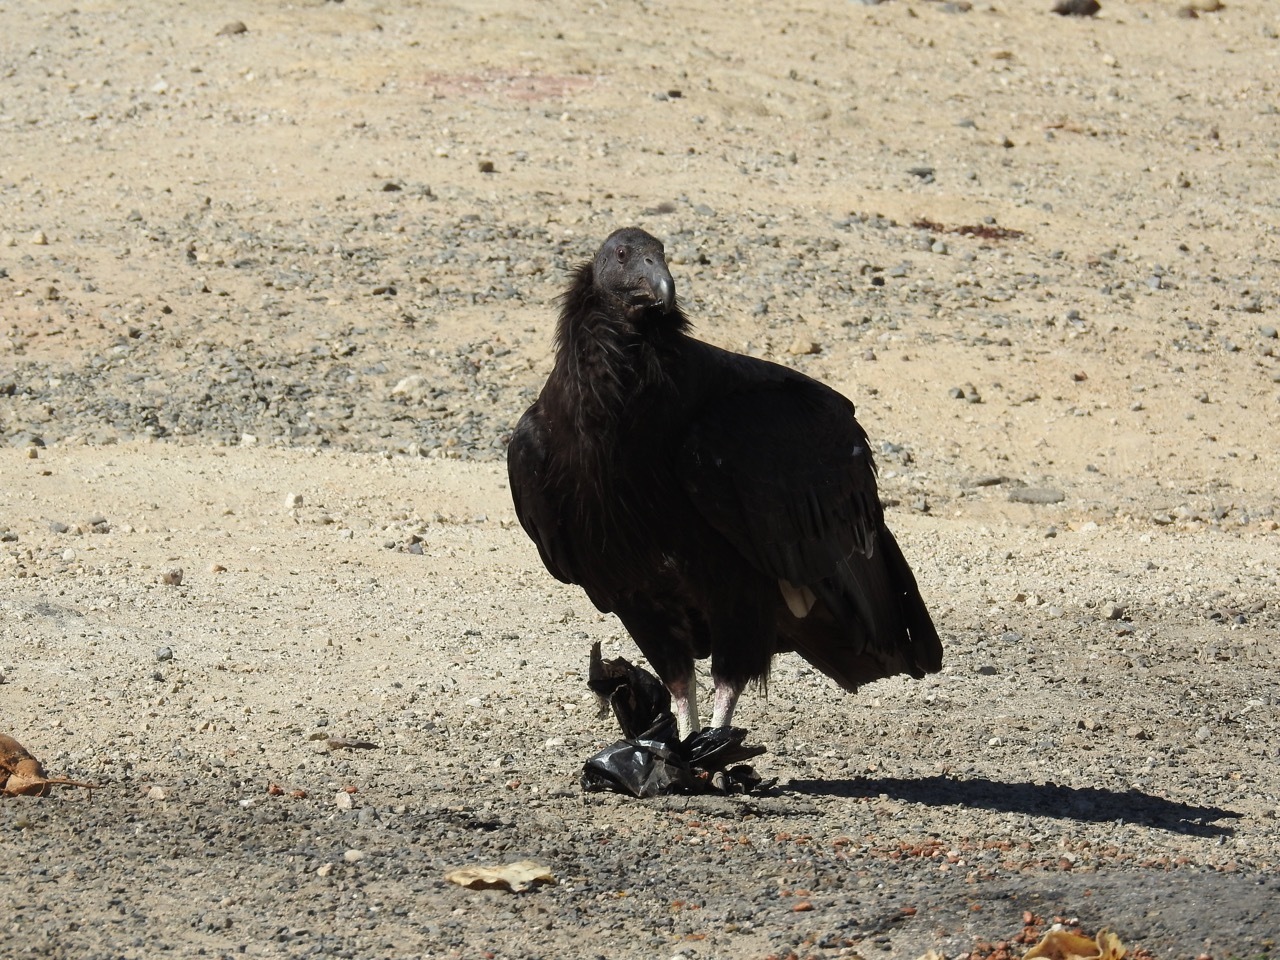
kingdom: Animalia
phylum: Chordata
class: Aves
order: Accipitriformes
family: Cathartidae
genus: Gymnogyps
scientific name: Gymnogyps californianus
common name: California condor
